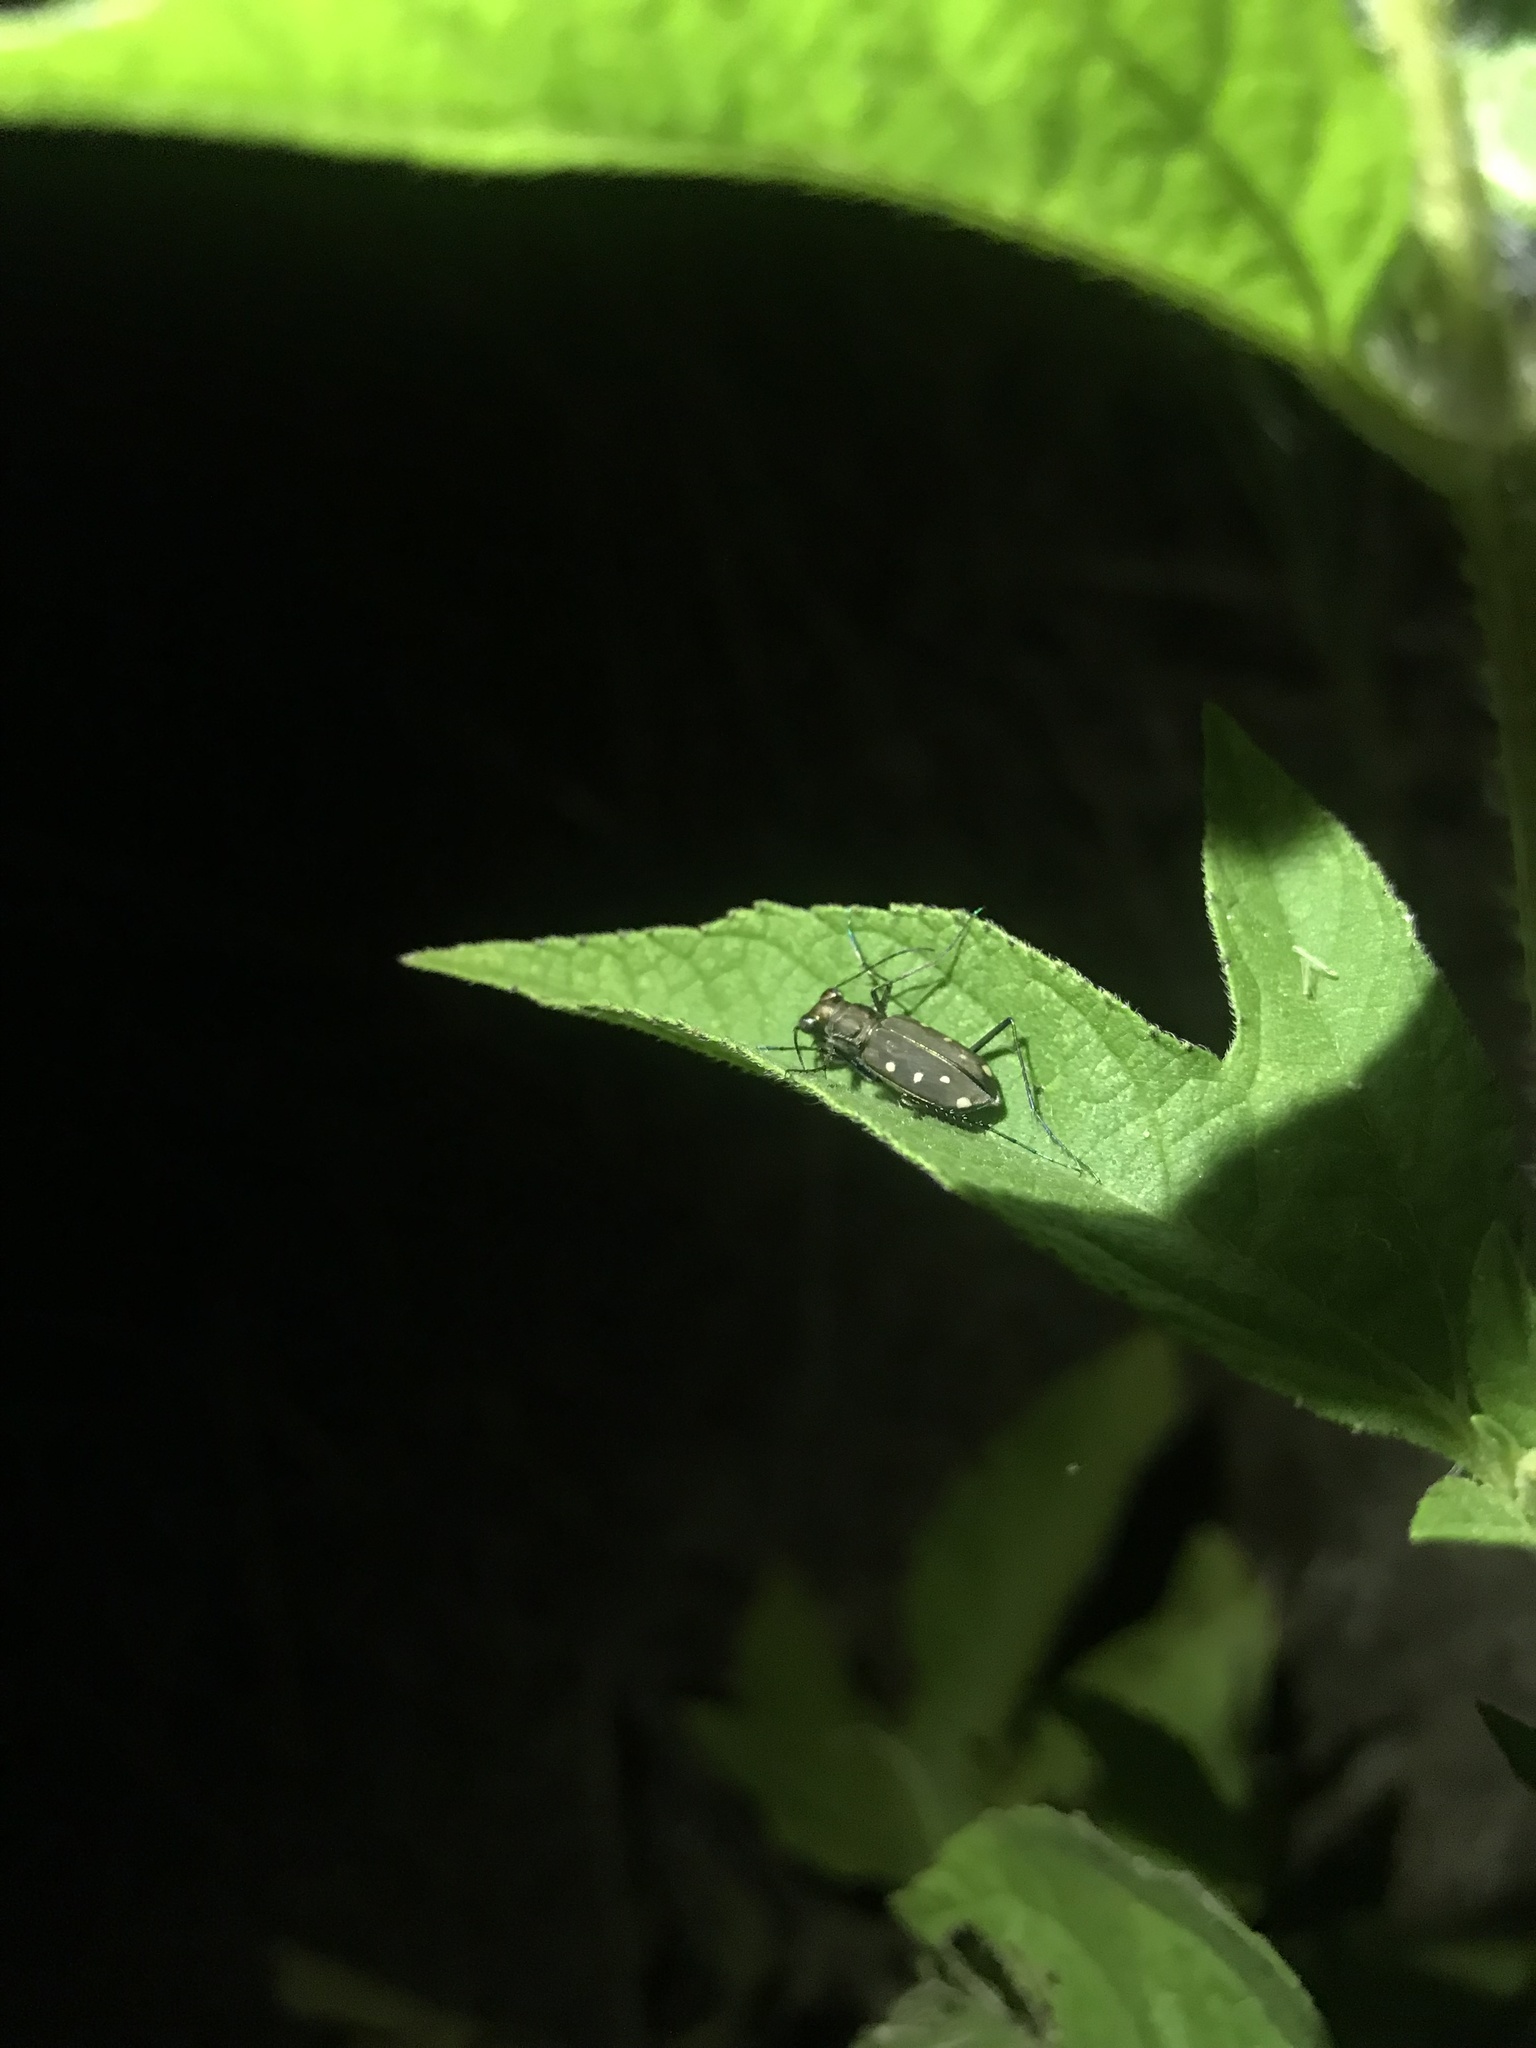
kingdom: Animalia
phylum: Arthropoda
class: Insecta
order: Coleoptera
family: Carabidae
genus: Cicindela
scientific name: Cicindela ocellata
